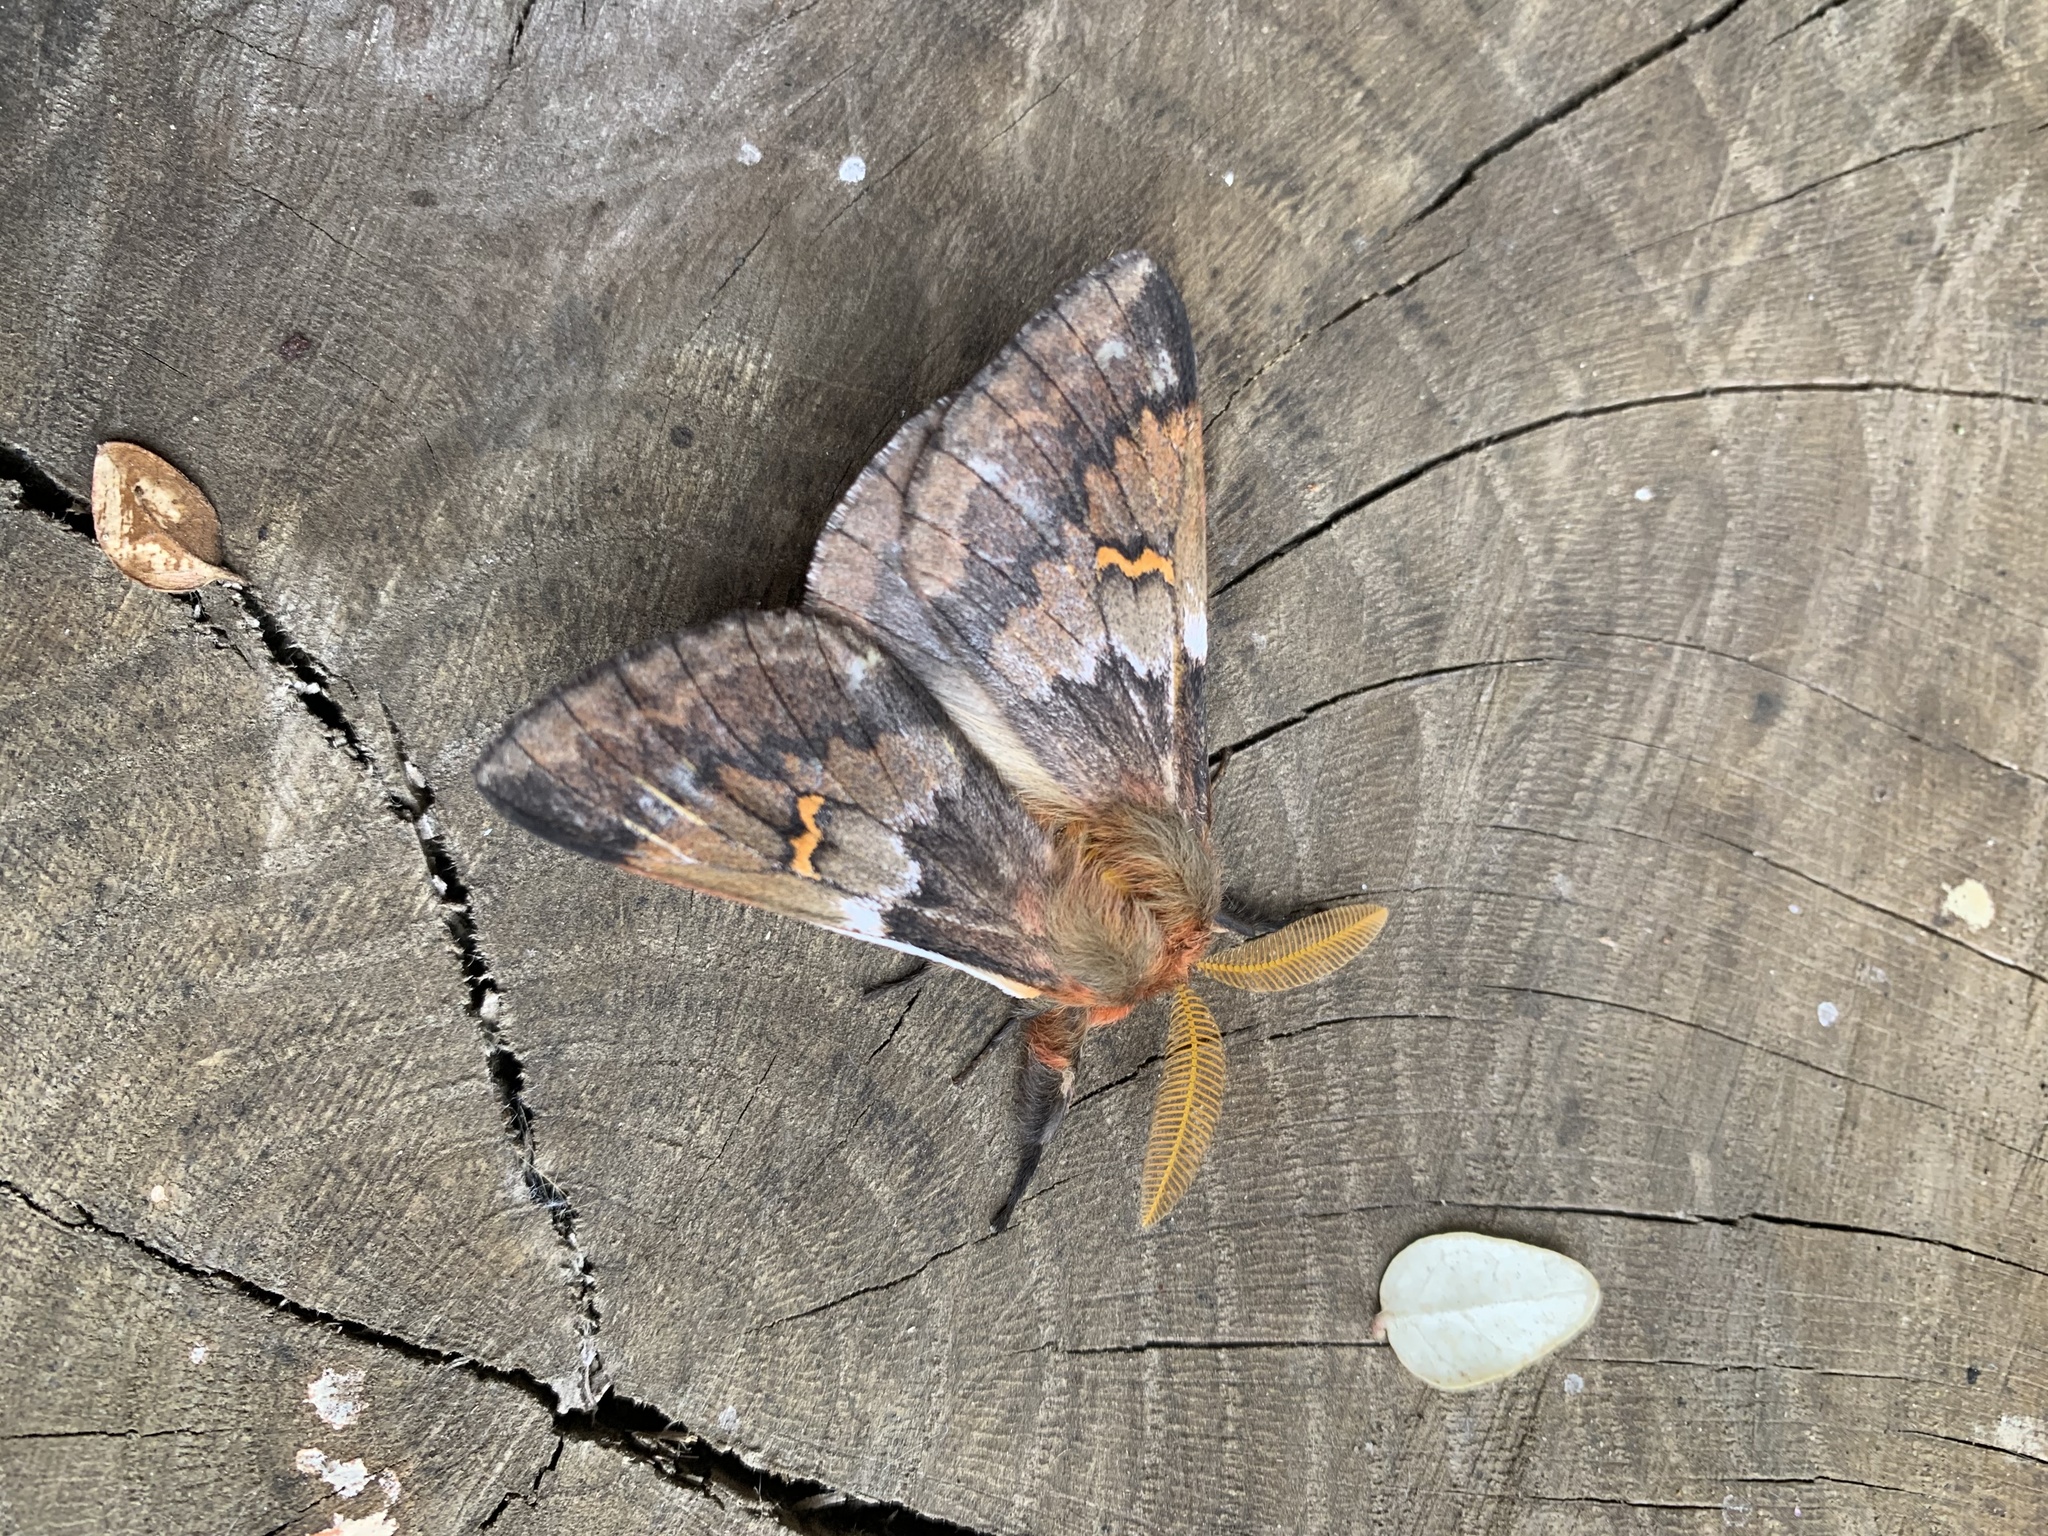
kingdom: Animalia
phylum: Arthropoda
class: Insecta
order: Lepidoptera
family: Saturniidae
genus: Ormiscodes
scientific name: Ormiscodes joiceyi
